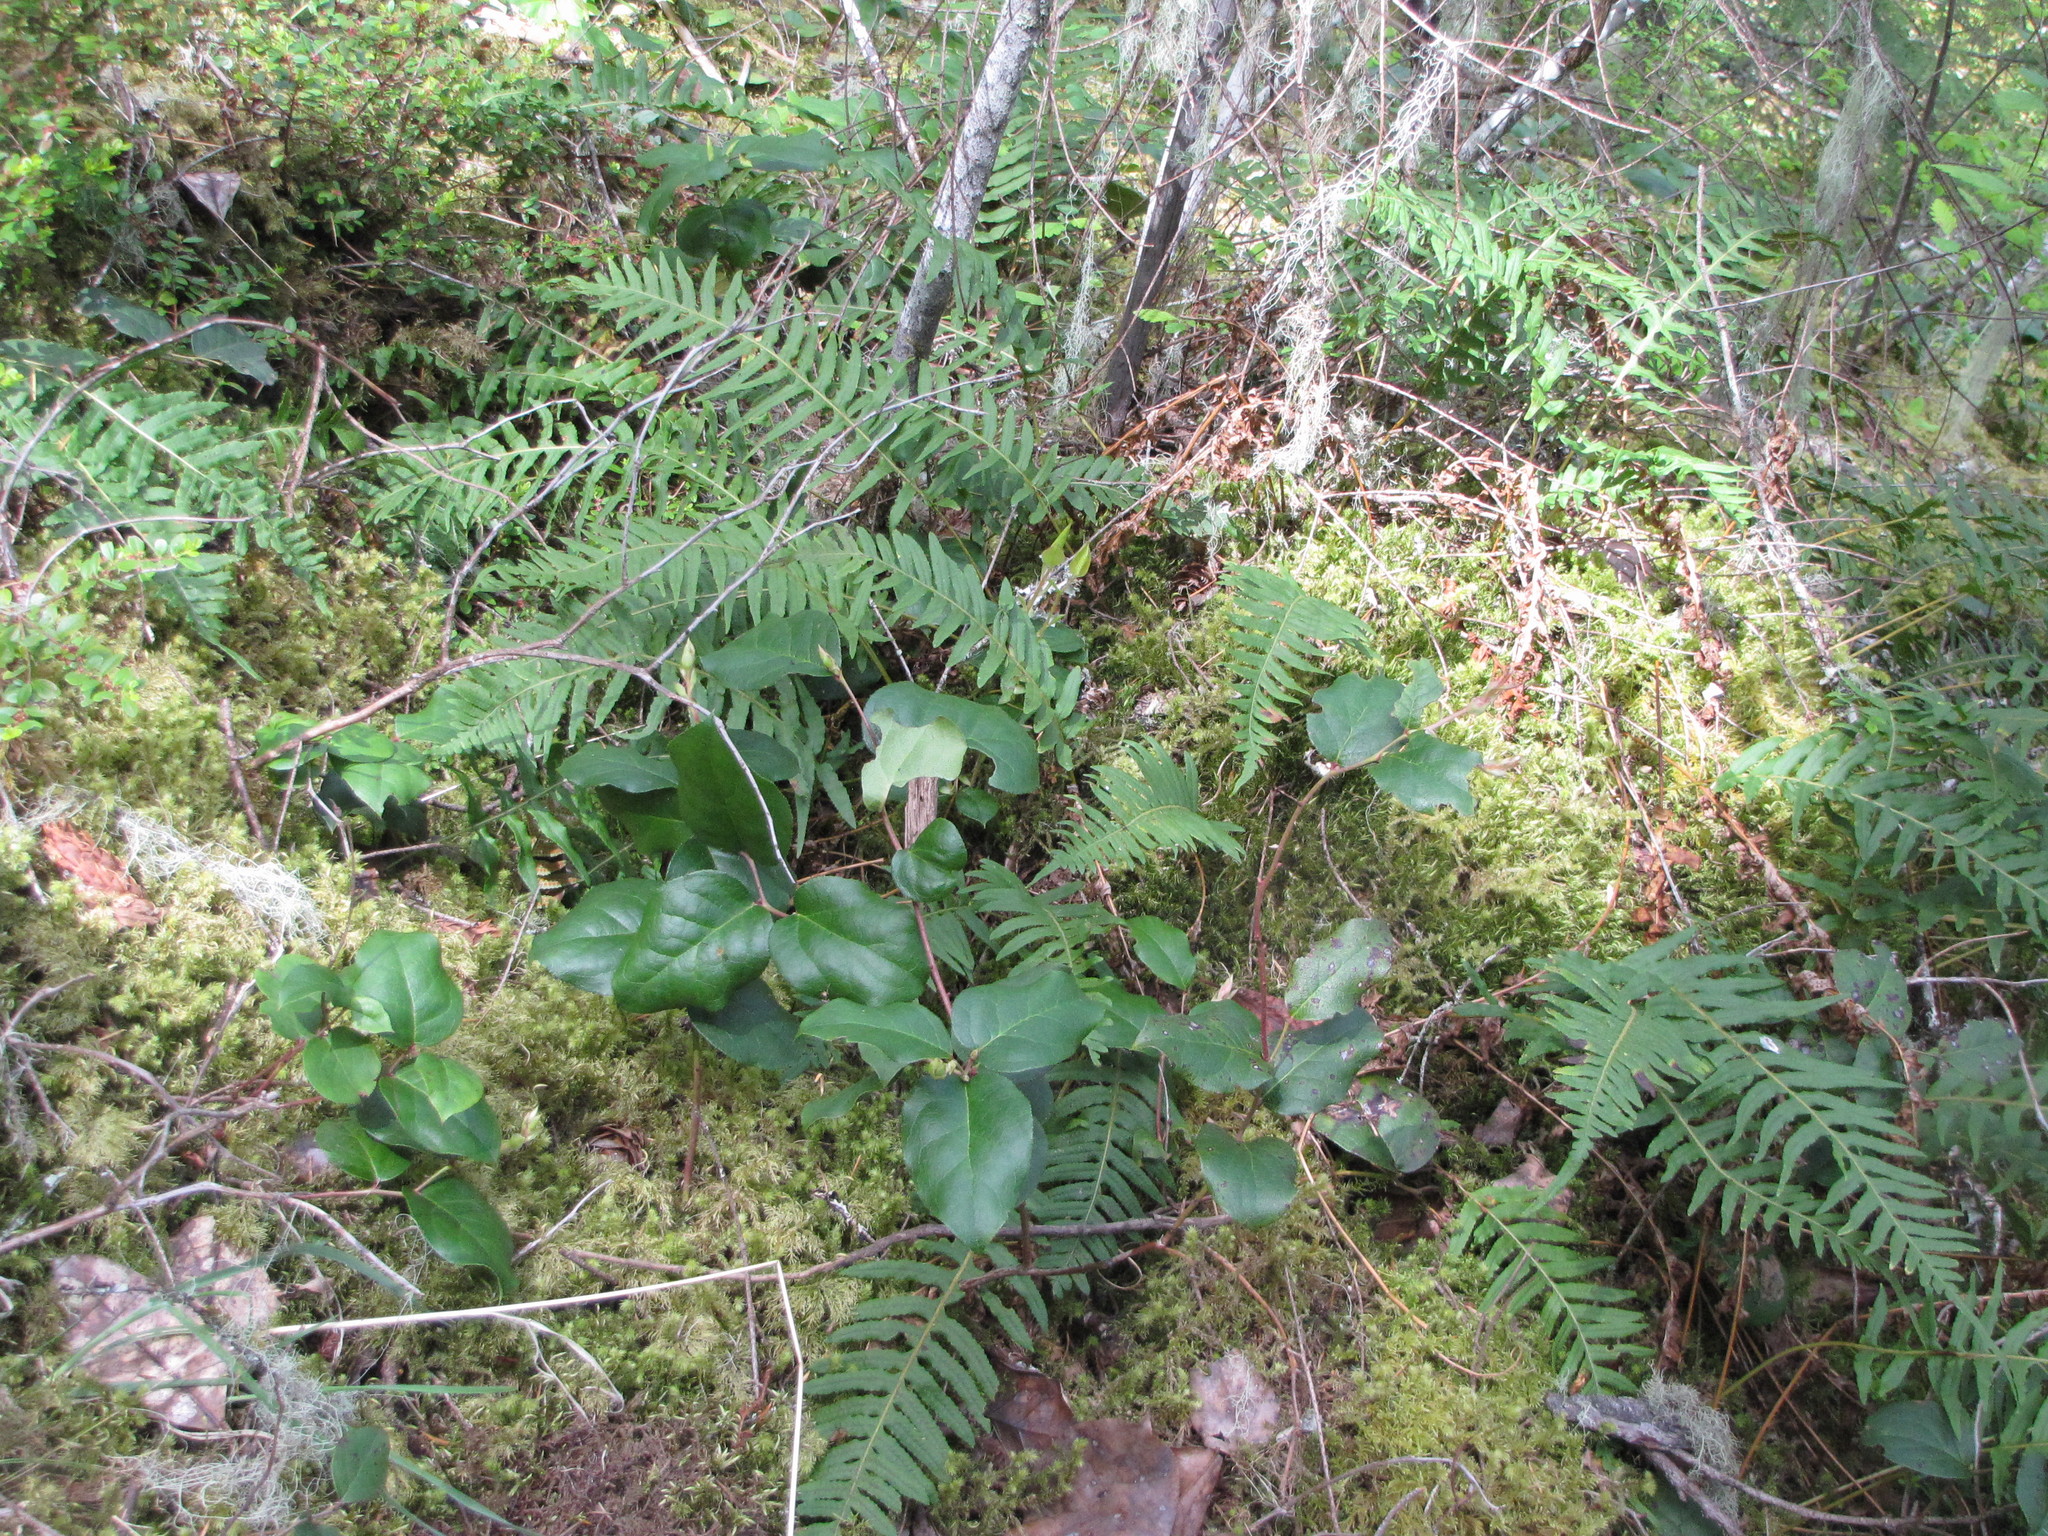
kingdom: Plantae
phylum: Tracheophyta
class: Magnoliopsida
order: Ericales
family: Ericaceae
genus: Gaultheria
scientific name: Gaultheria shallon
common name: Shallon
